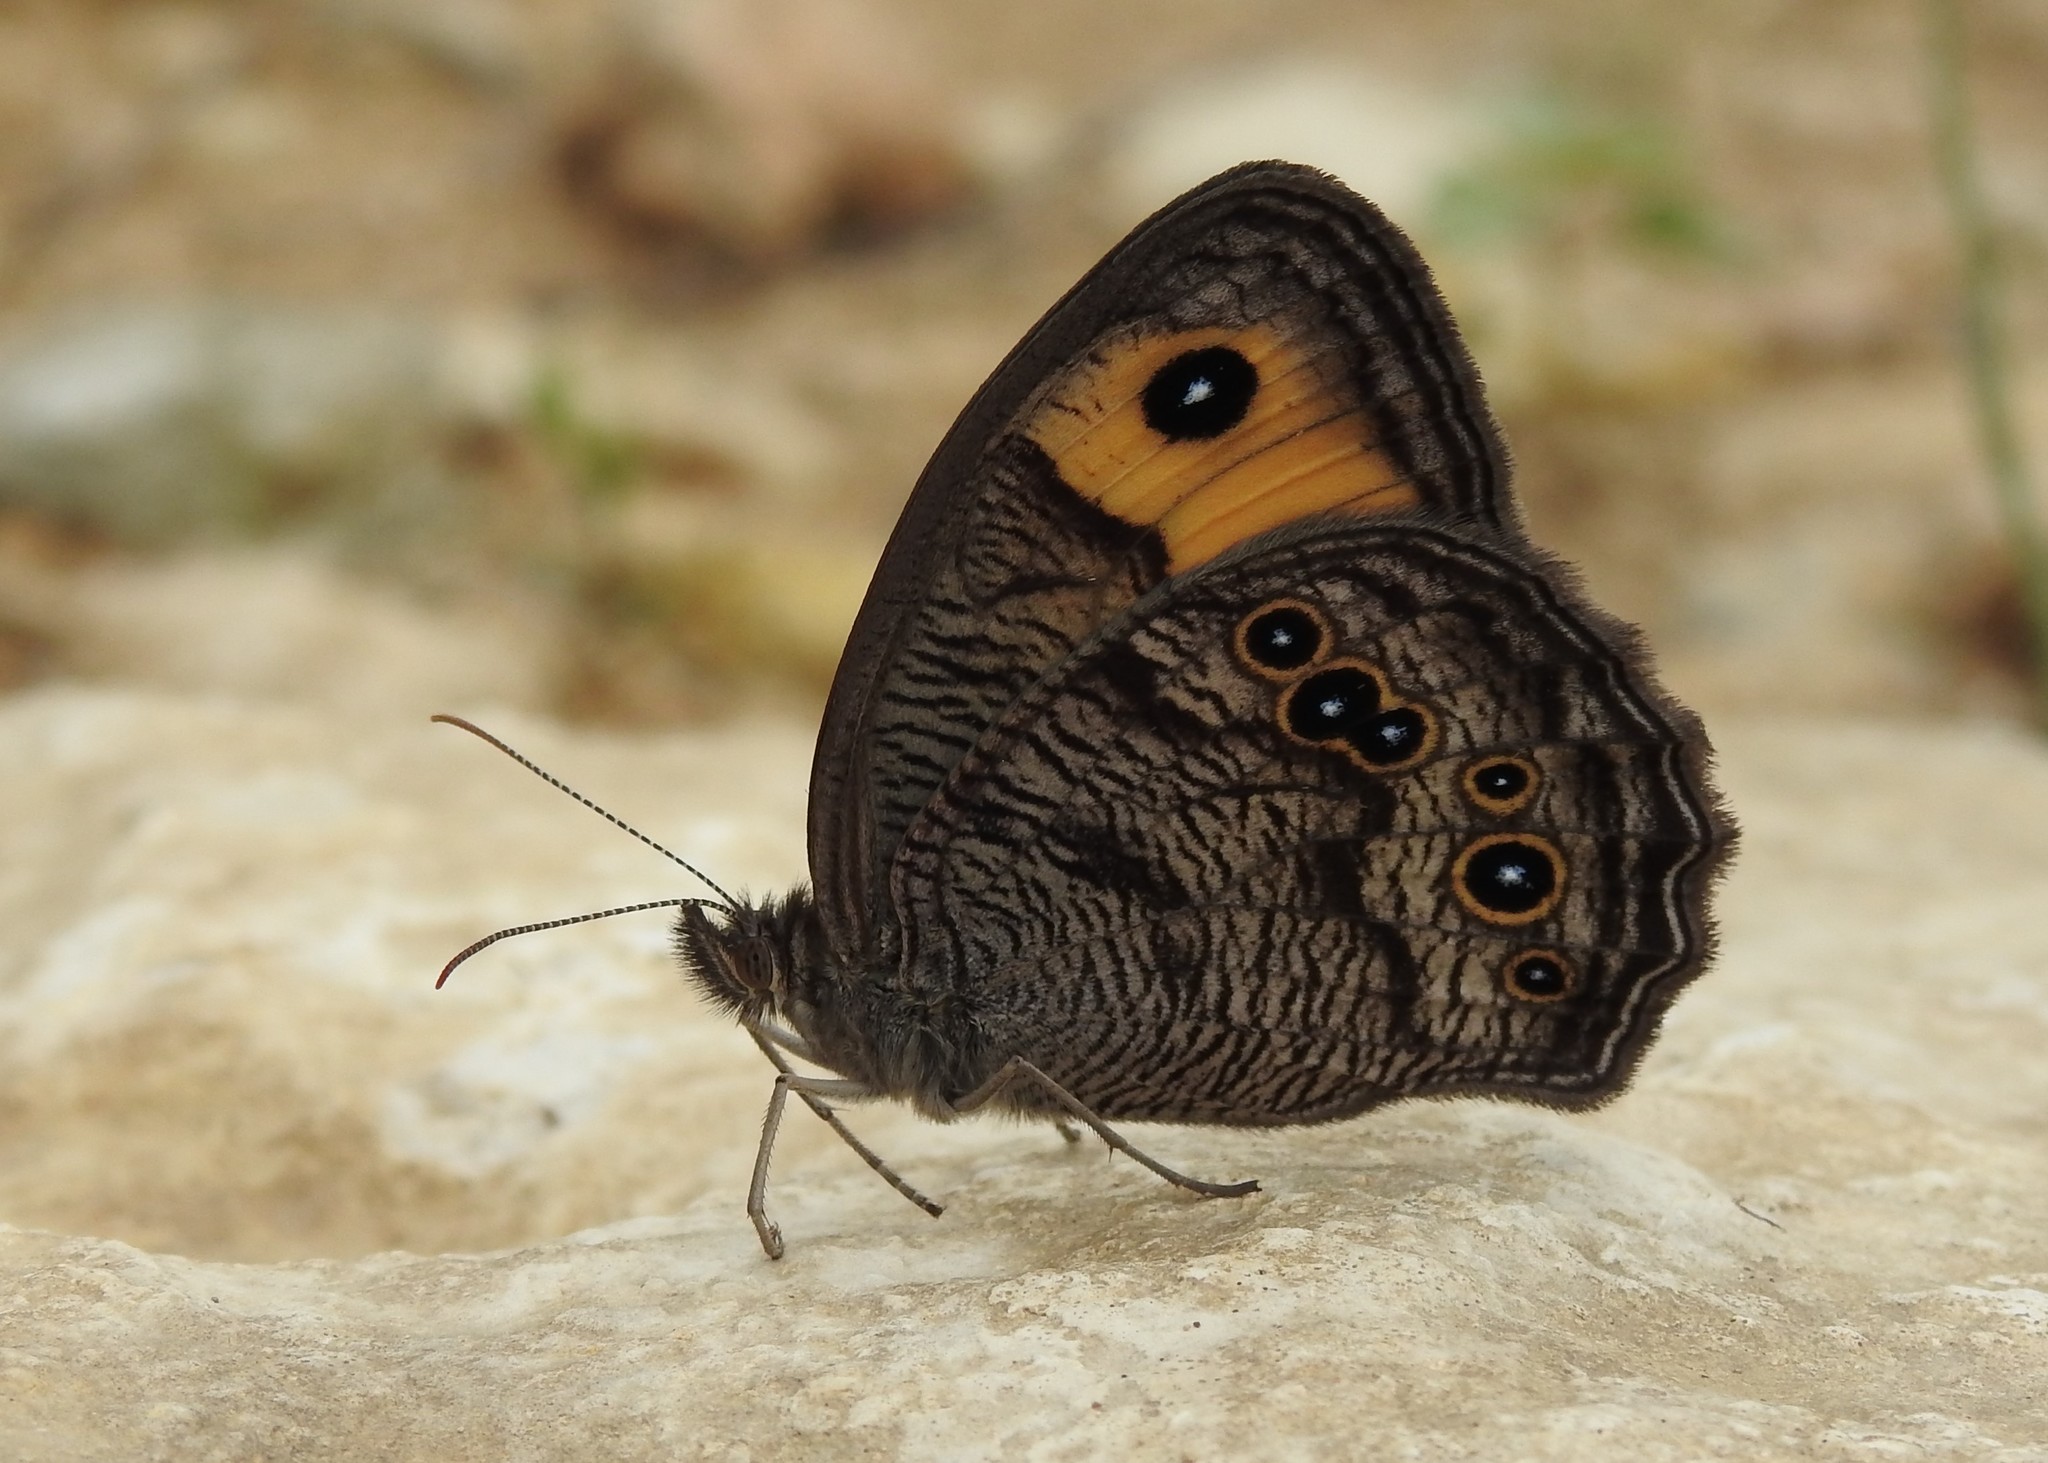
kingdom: Animalia
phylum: Arthropoda
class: Insecta
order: Lepidoptera
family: Nymphalidae
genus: Cercyonis
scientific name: Cercyonis pegala
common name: Common wood-nymph
